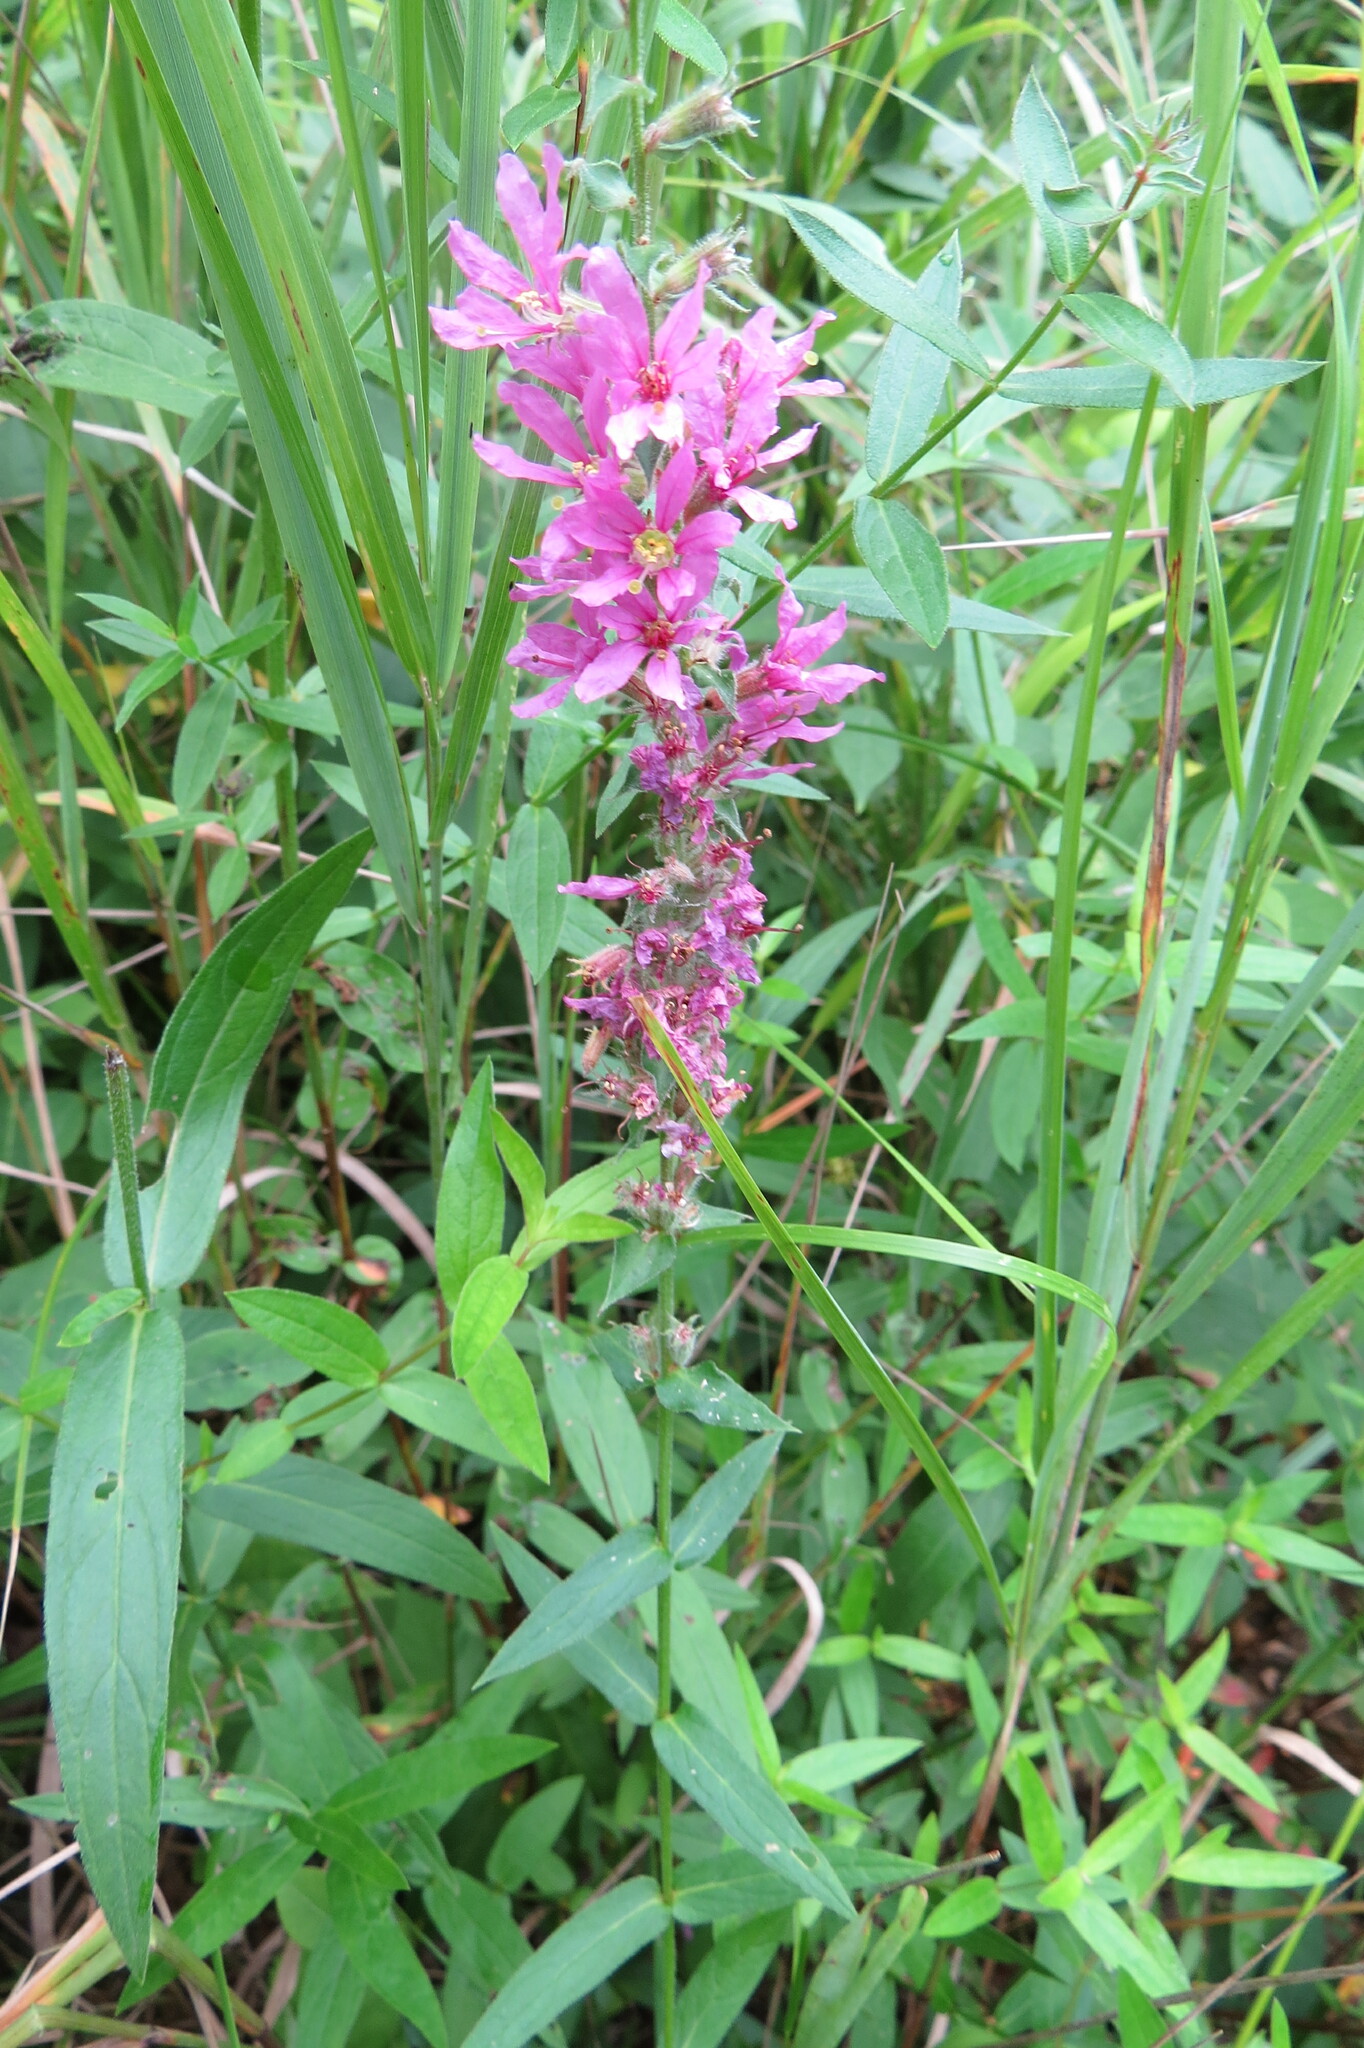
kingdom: Plantae
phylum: Tracheophyta
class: Magnoliopsida
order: Myrtales
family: Lythraceae
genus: Lythrum
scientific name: Lythrum salicaria
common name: Purple loosestrife
